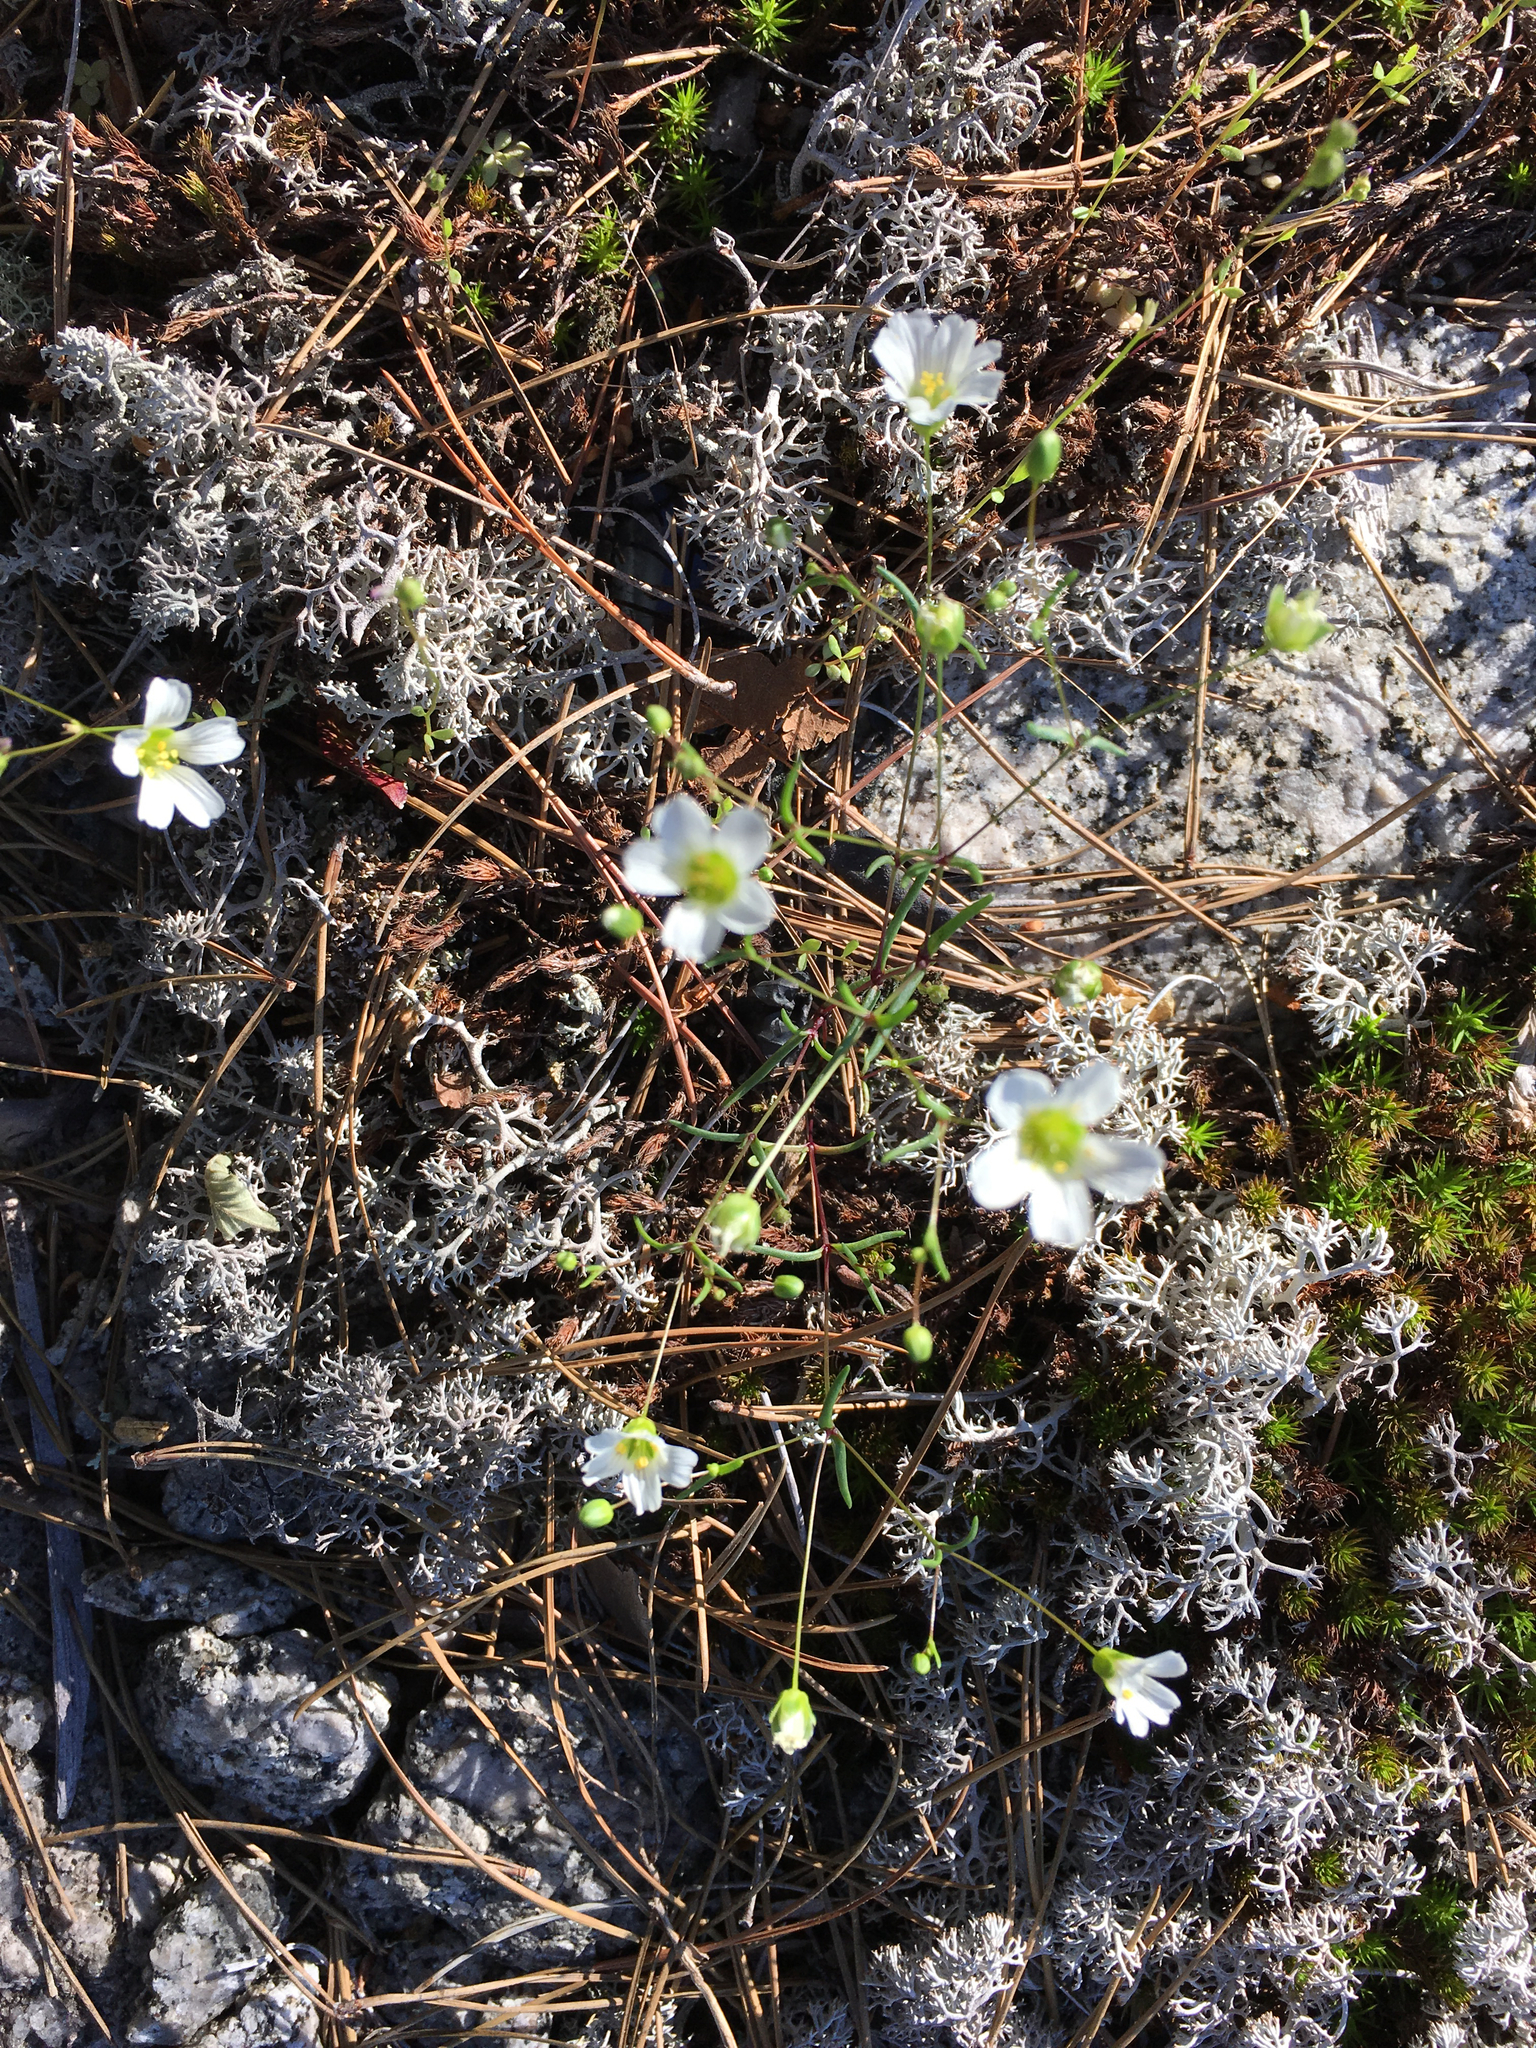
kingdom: Plantae
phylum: Tracheophyta
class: Magnoliopsida
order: Caryophyllales
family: Caryophyllaceae
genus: Geocarpon
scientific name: Geocarpon glabrum
